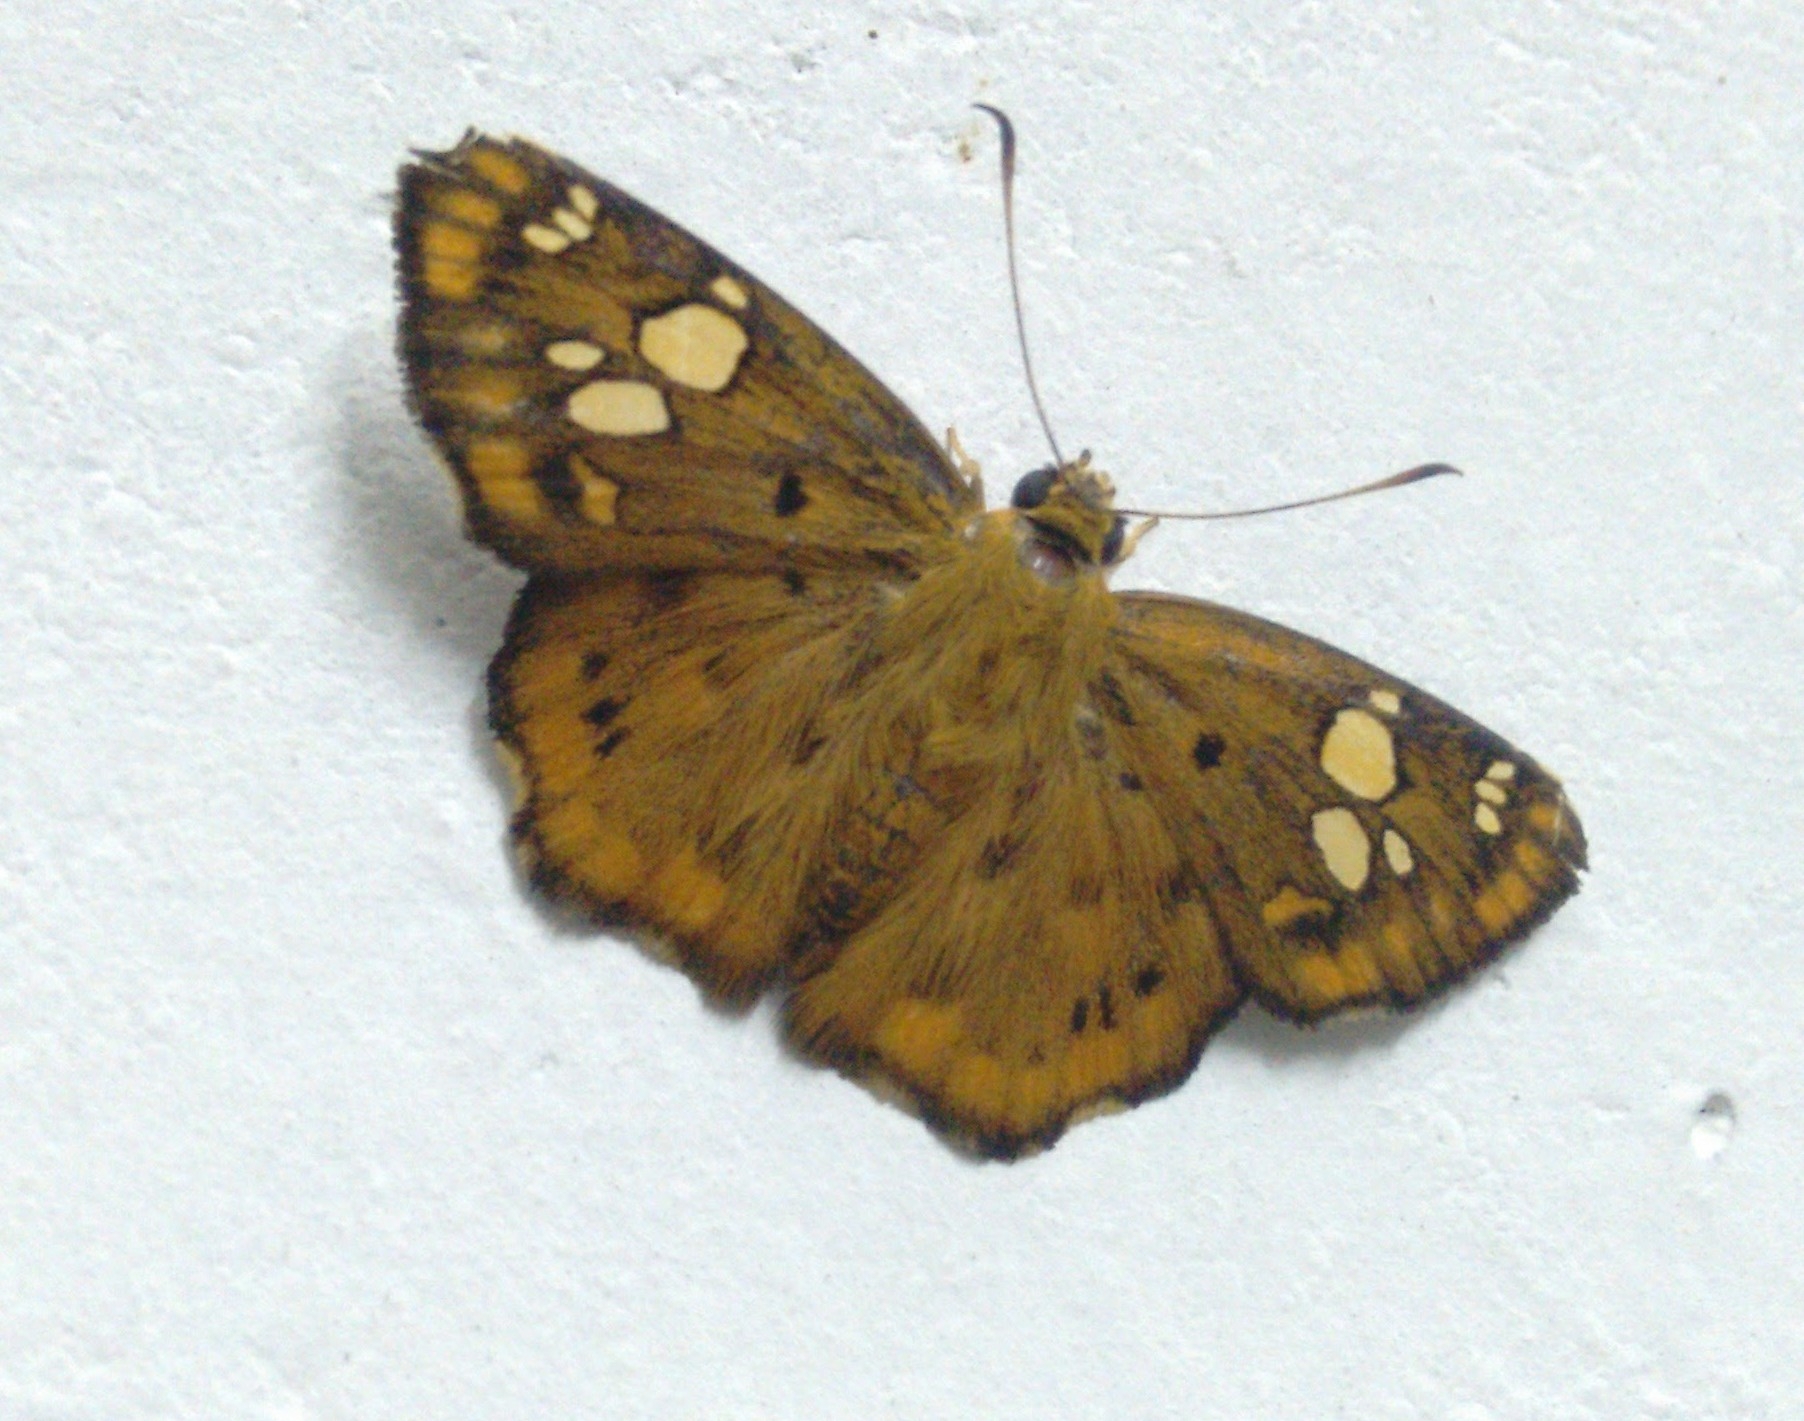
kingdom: Animalia
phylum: Arthropoda
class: Insecta
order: Lepidoptera
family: Hesperiidae
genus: Coladenia
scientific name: Coladenia
